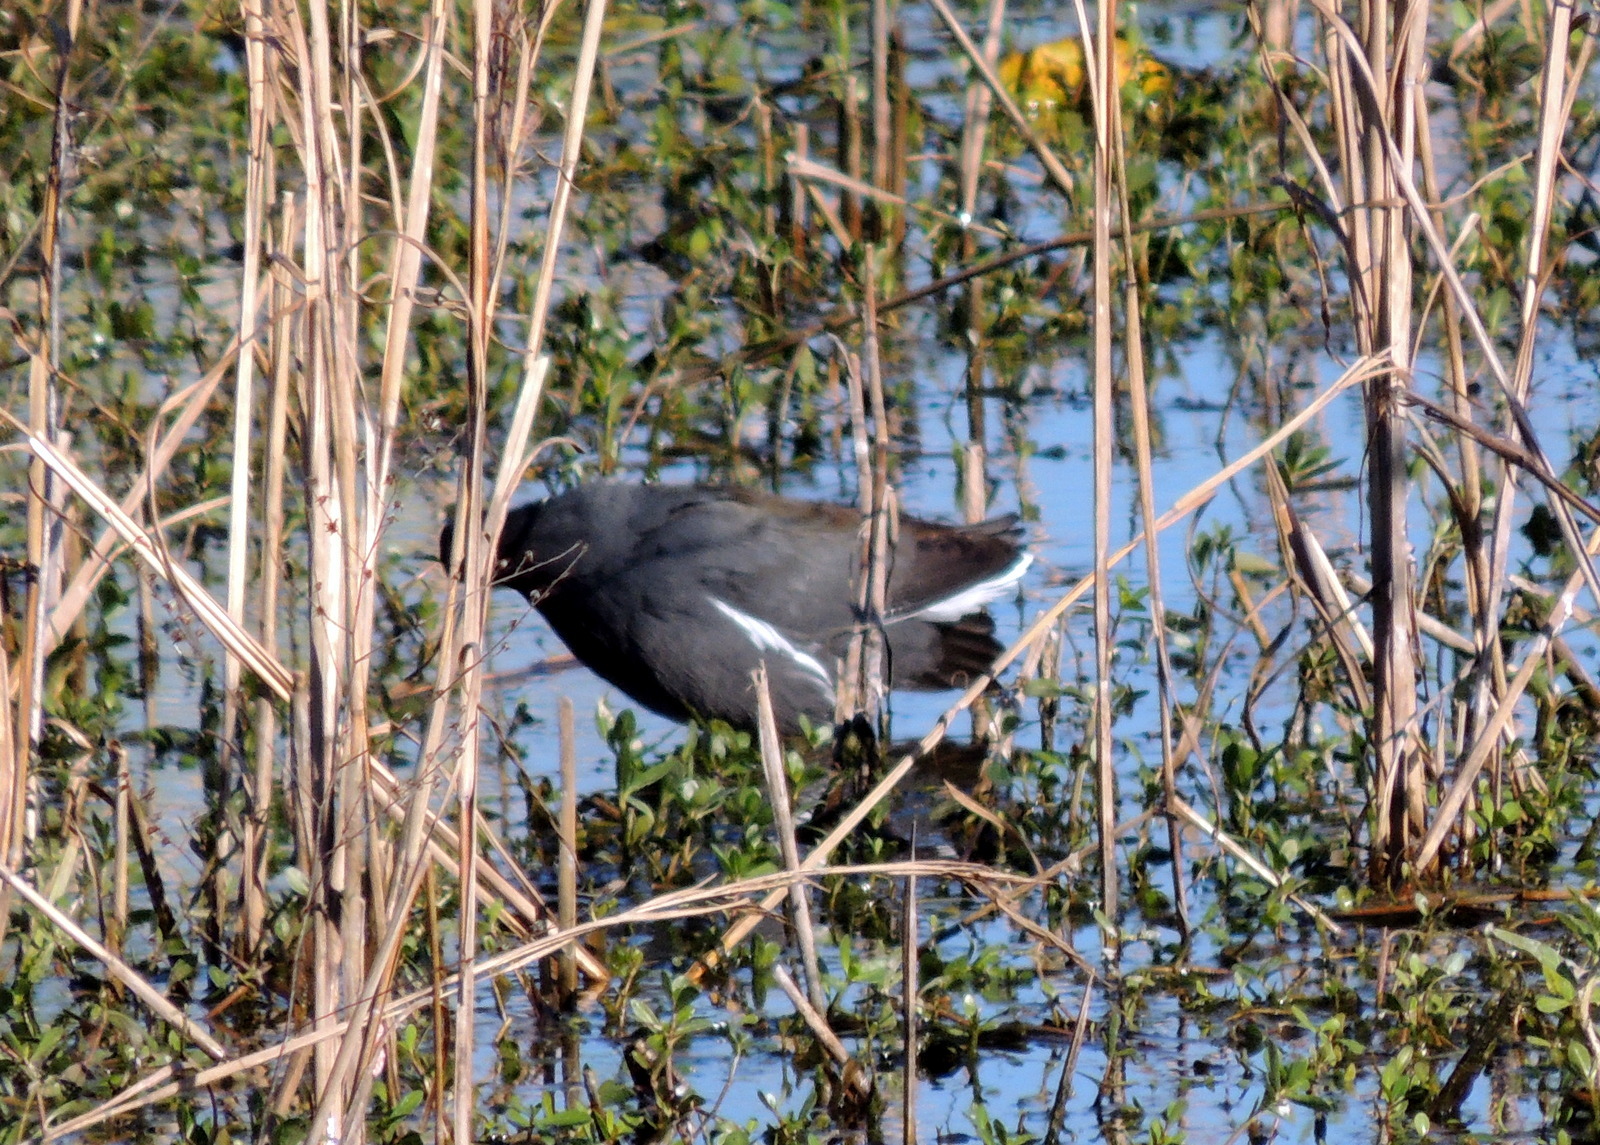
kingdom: Animalia
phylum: Chordata
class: Aves
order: Gruiformes
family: Rallidae
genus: Gallinula
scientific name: Gallinula chloropus
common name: Common moorhen
